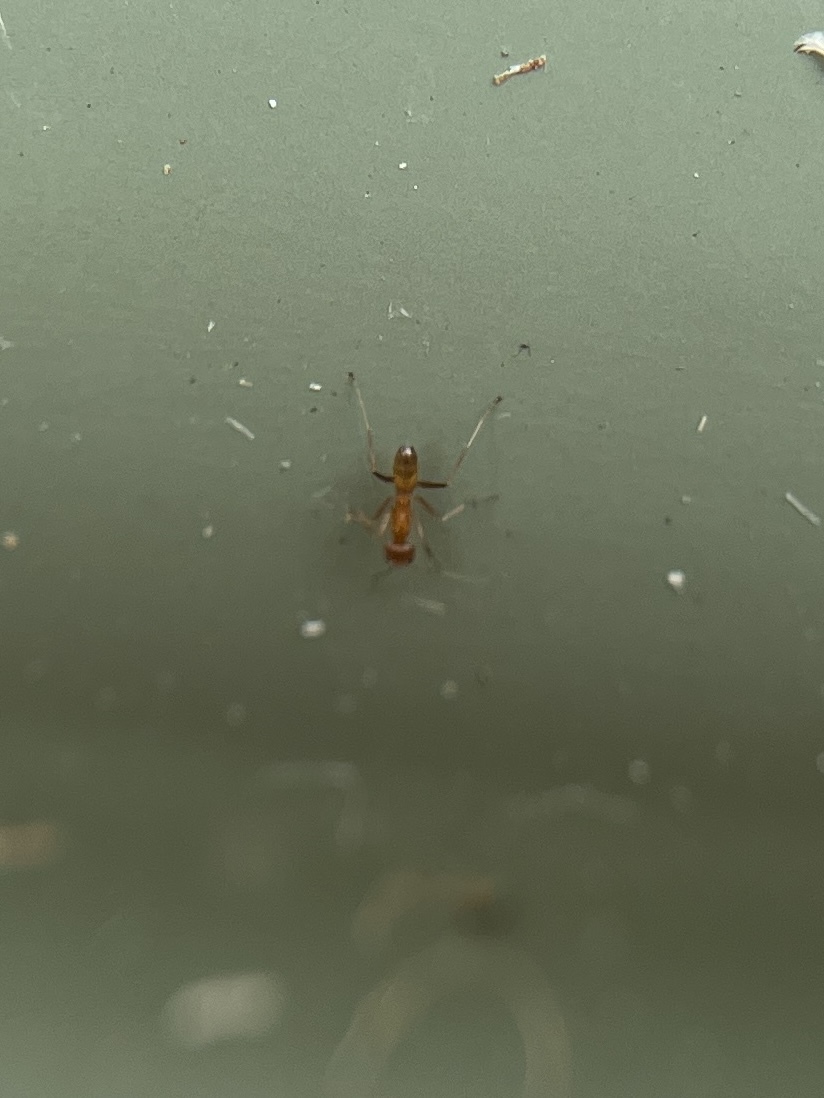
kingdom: Animalia
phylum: Arthropoda
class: Insecta
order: Hymenoptera
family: Formicidae
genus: Dorymyrmex
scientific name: Dorymyrmex bureni
